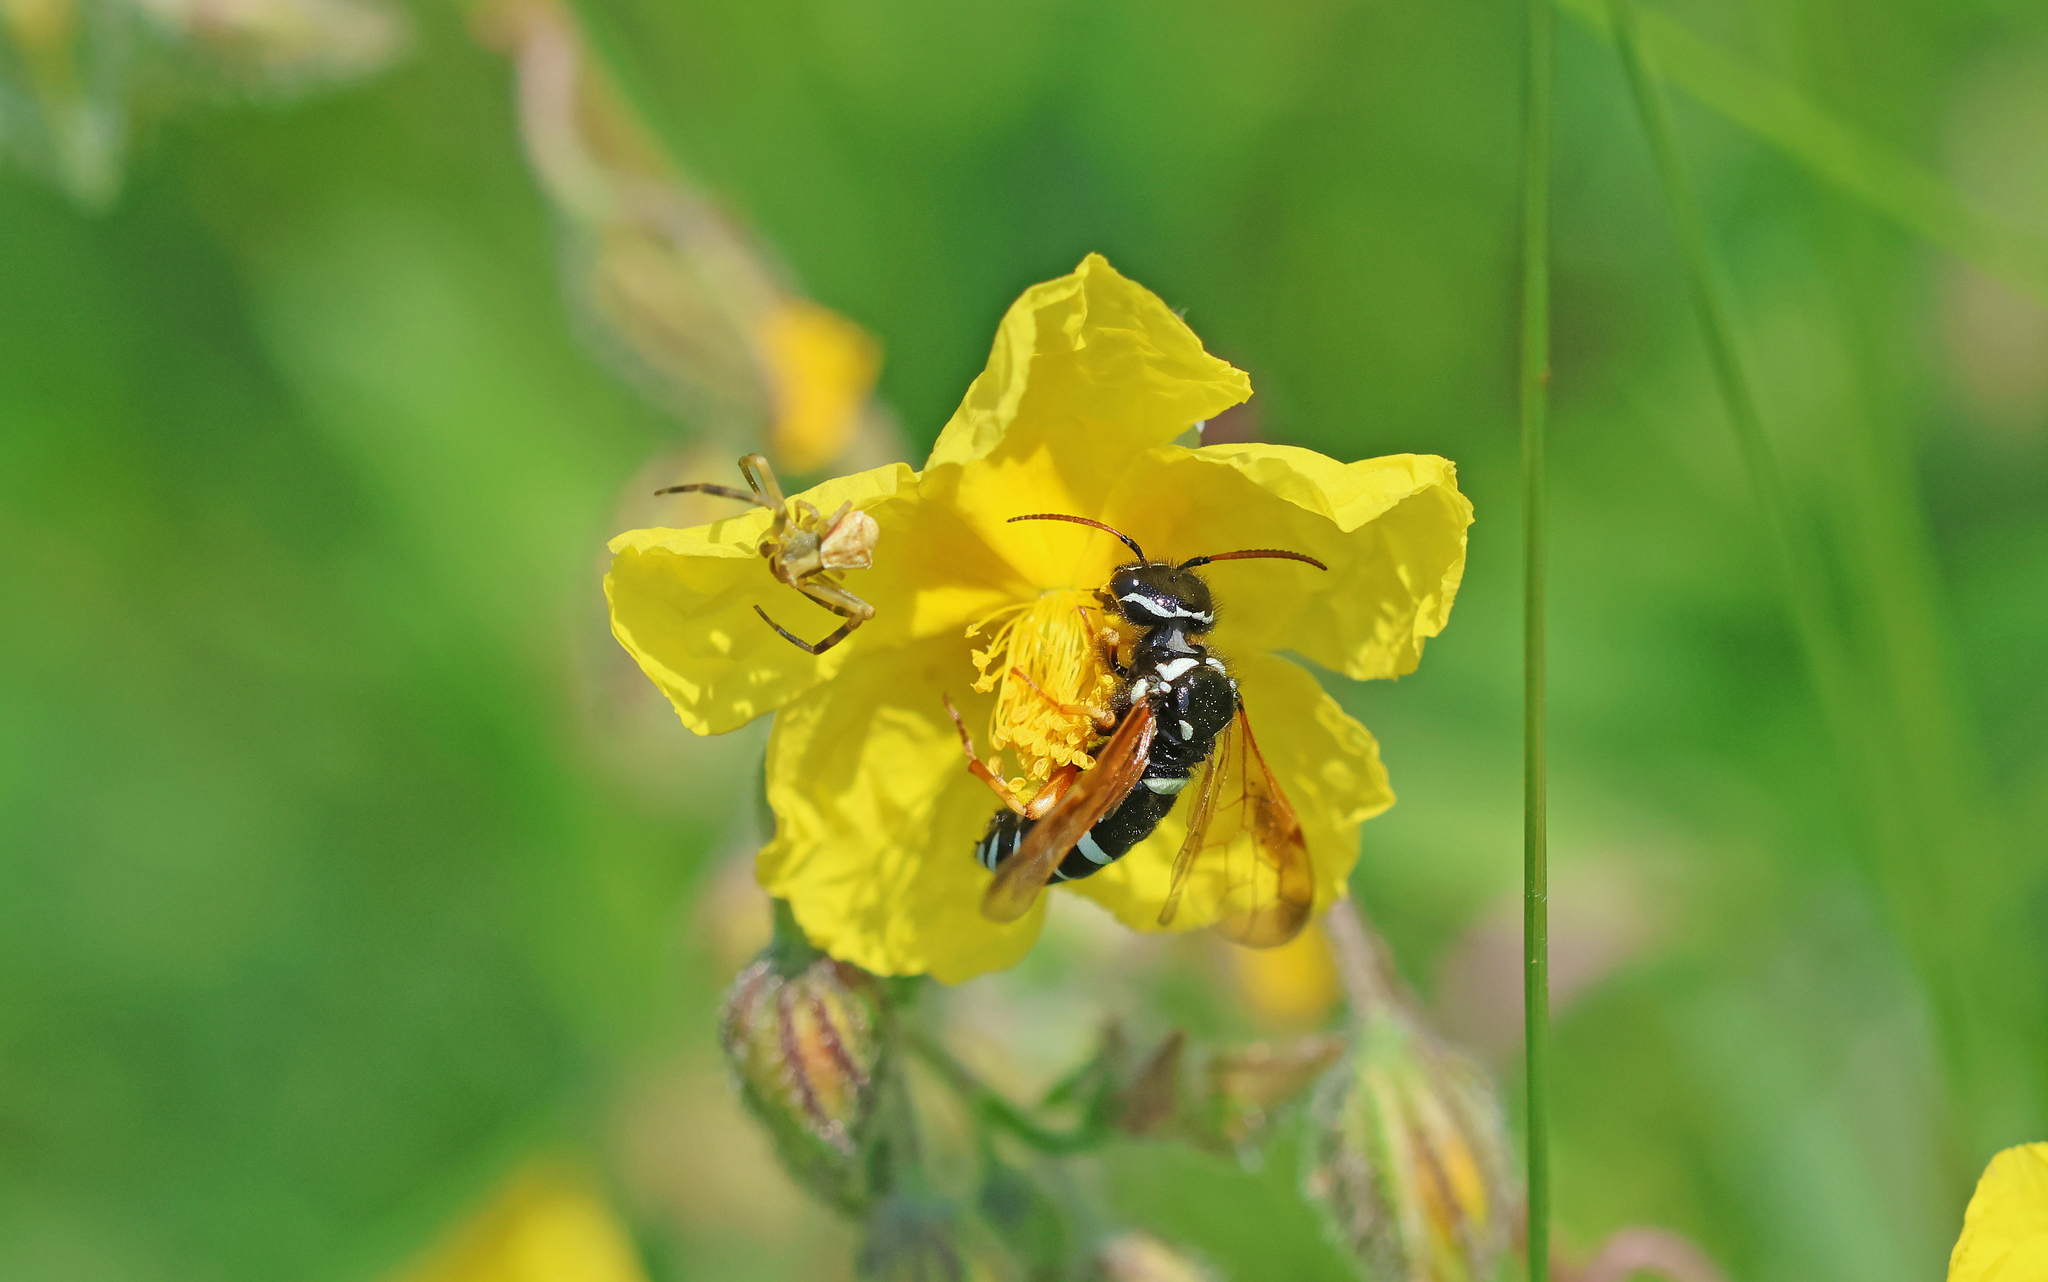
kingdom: Animalia
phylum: Arthropoda
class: Insecta
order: Hymenoptera
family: Megalodontesidae
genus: Megalodontes
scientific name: Megalodontes plagiocephalus
